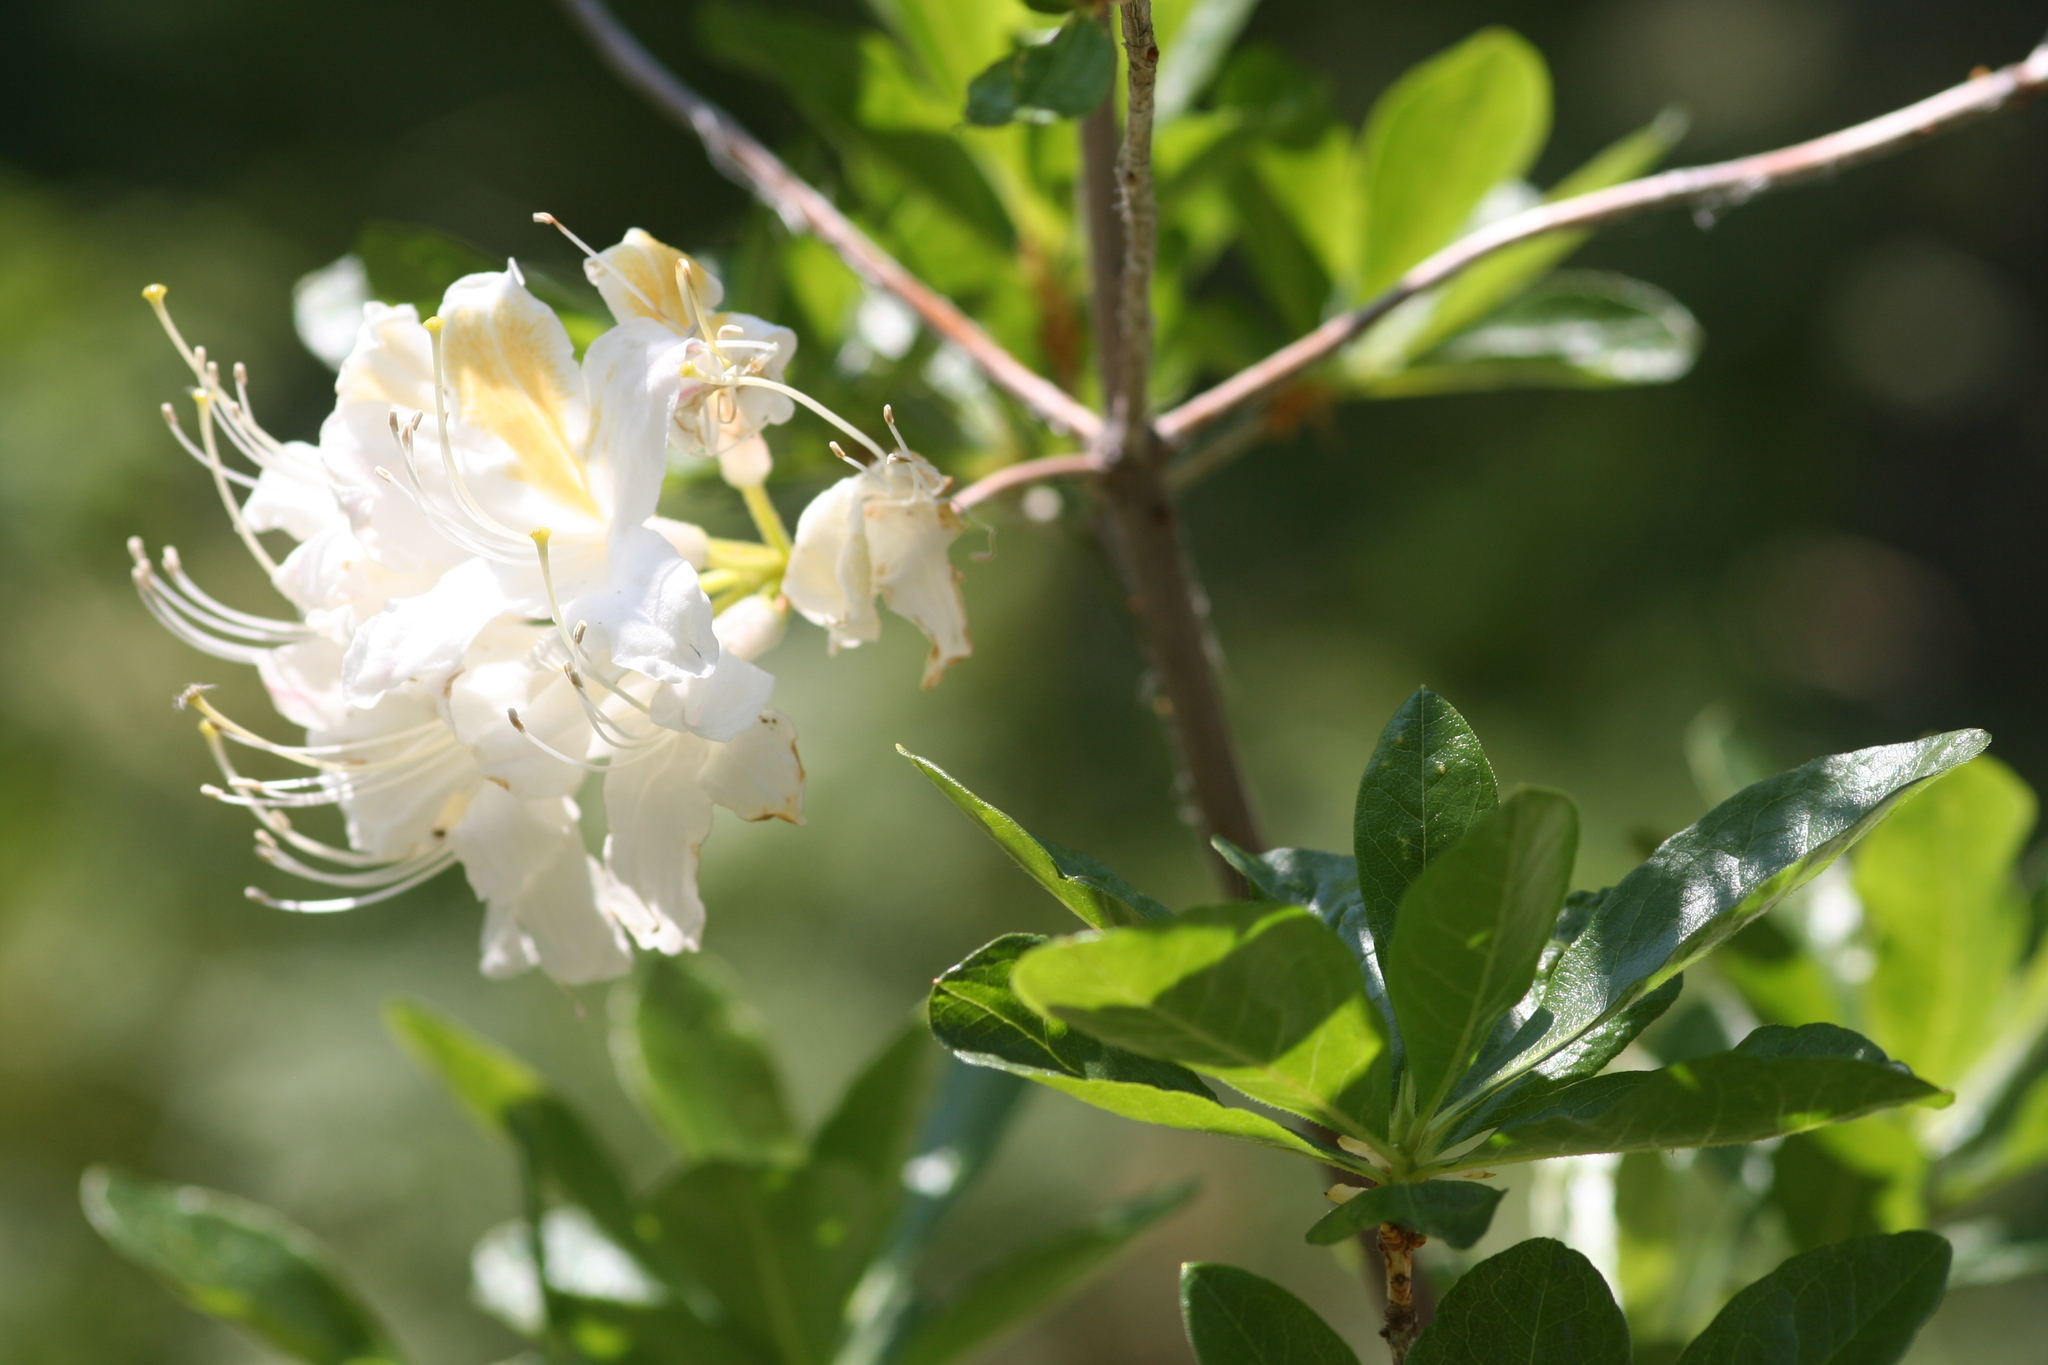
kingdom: Plantae
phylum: Tracheophyta
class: Magnoliopsida
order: Ericales
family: Ericaceae
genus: Rhododendron
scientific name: Rhododendron occidentale
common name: Western azalea
